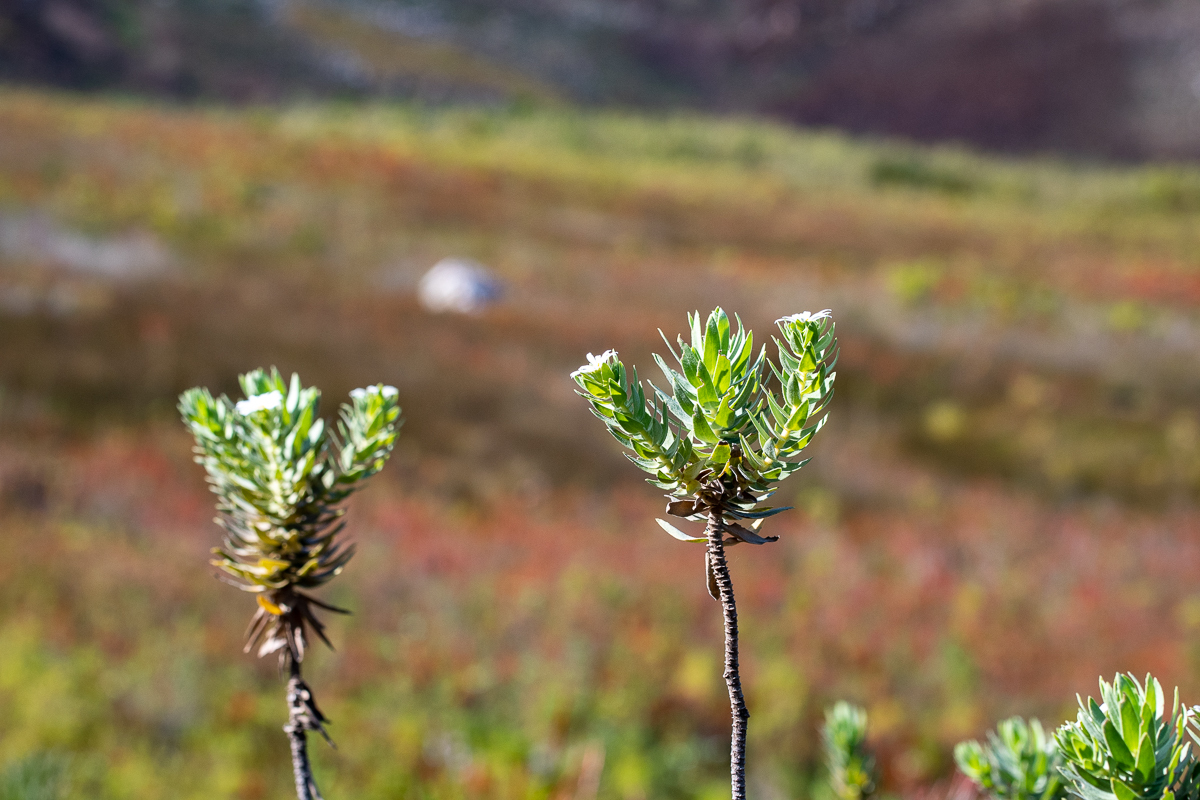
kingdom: Plantae
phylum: Tracheophyta
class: Magnoliopsida
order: Asterales
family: Asteraceae
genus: Osmitopsis
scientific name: Osmitopsis asteriscoides
